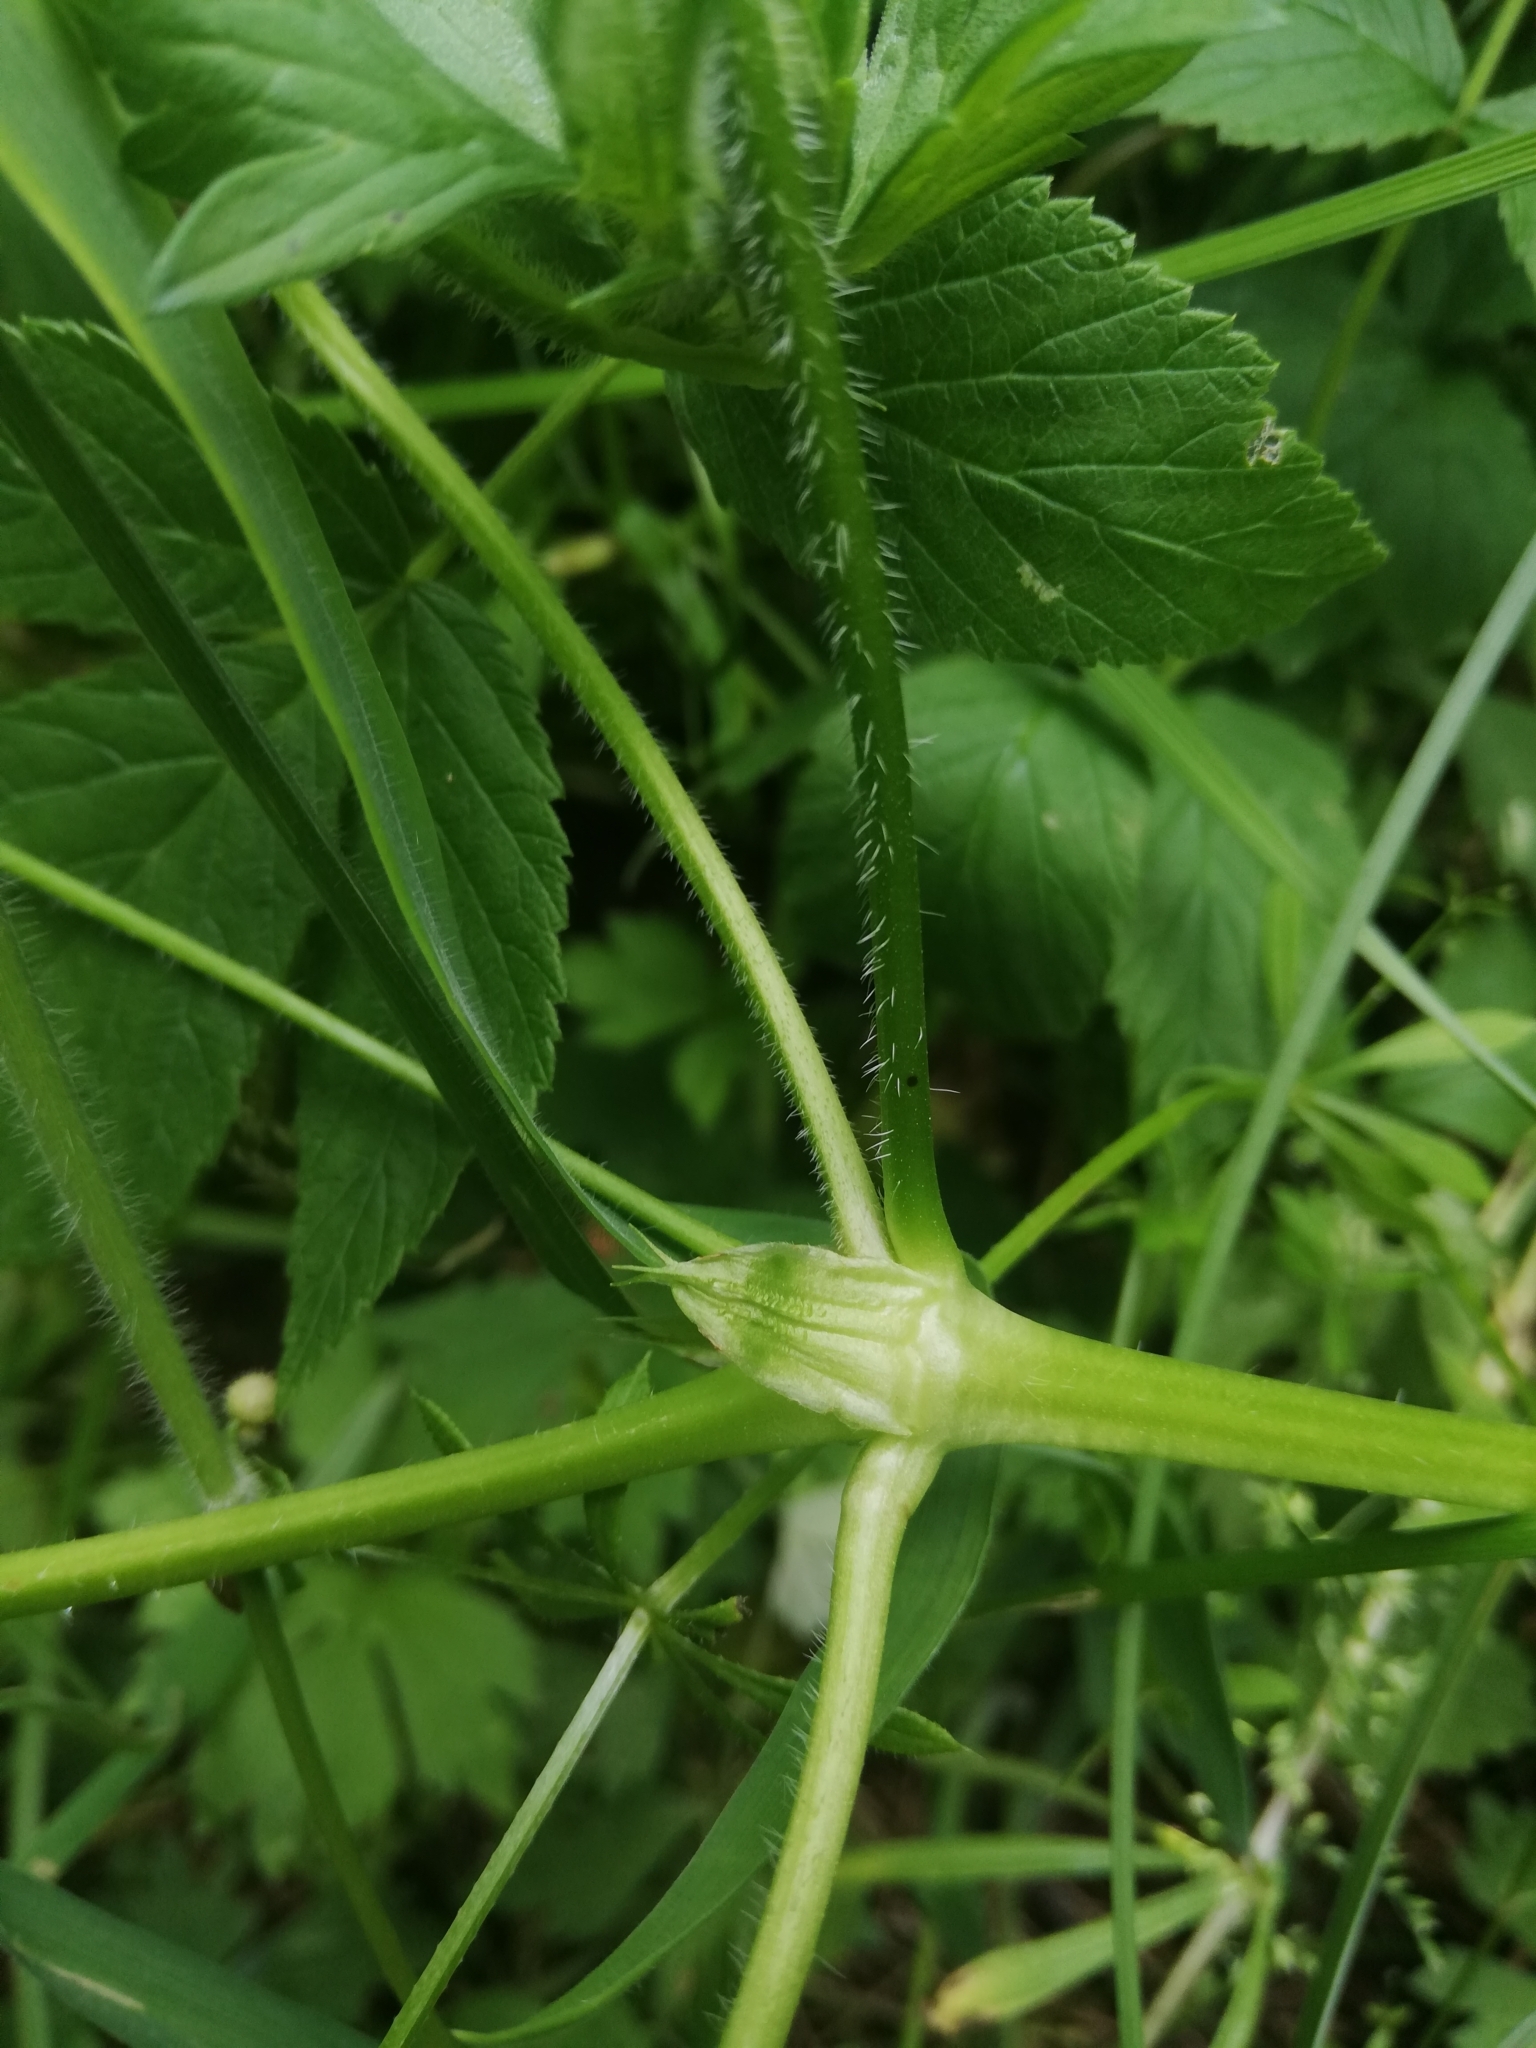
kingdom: Plantae
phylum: Tracheophyta
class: Magnoliopsida
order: Geraniales
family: Geraniaceae
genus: Geranium
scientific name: Geranium palustre
